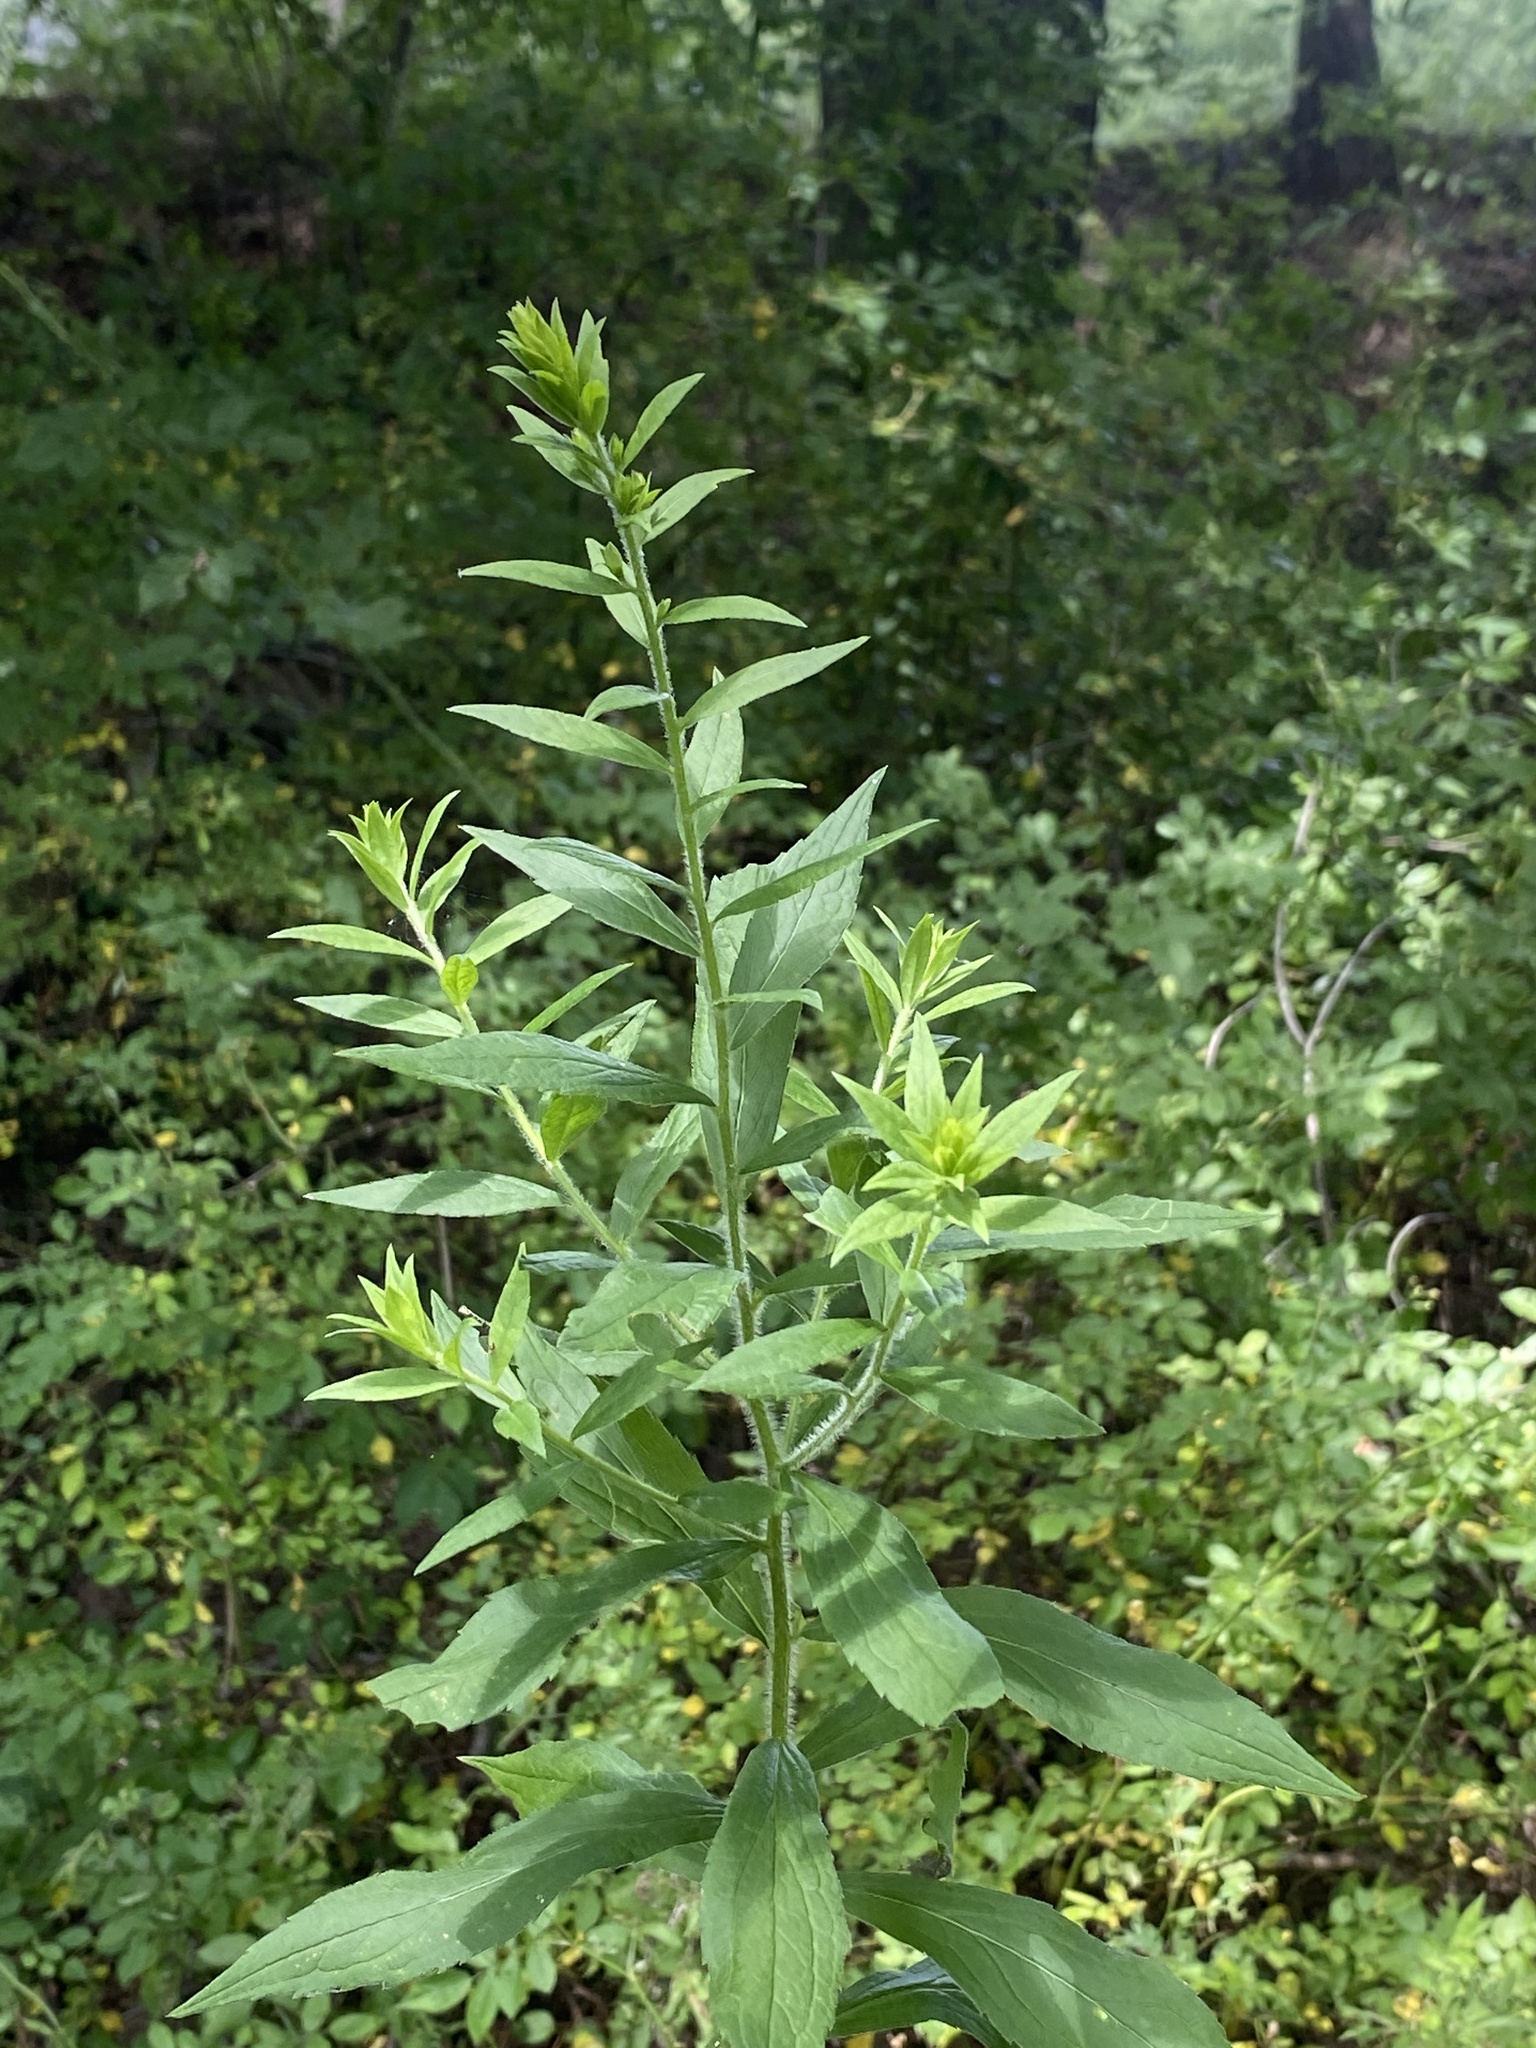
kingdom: Plantae
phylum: Tracheophyta
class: Magnoliopsida
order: Asterales
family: Asteraceae
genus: Solidago
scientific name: Solidago rugosa
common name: Rough-stemmed goldenrod
